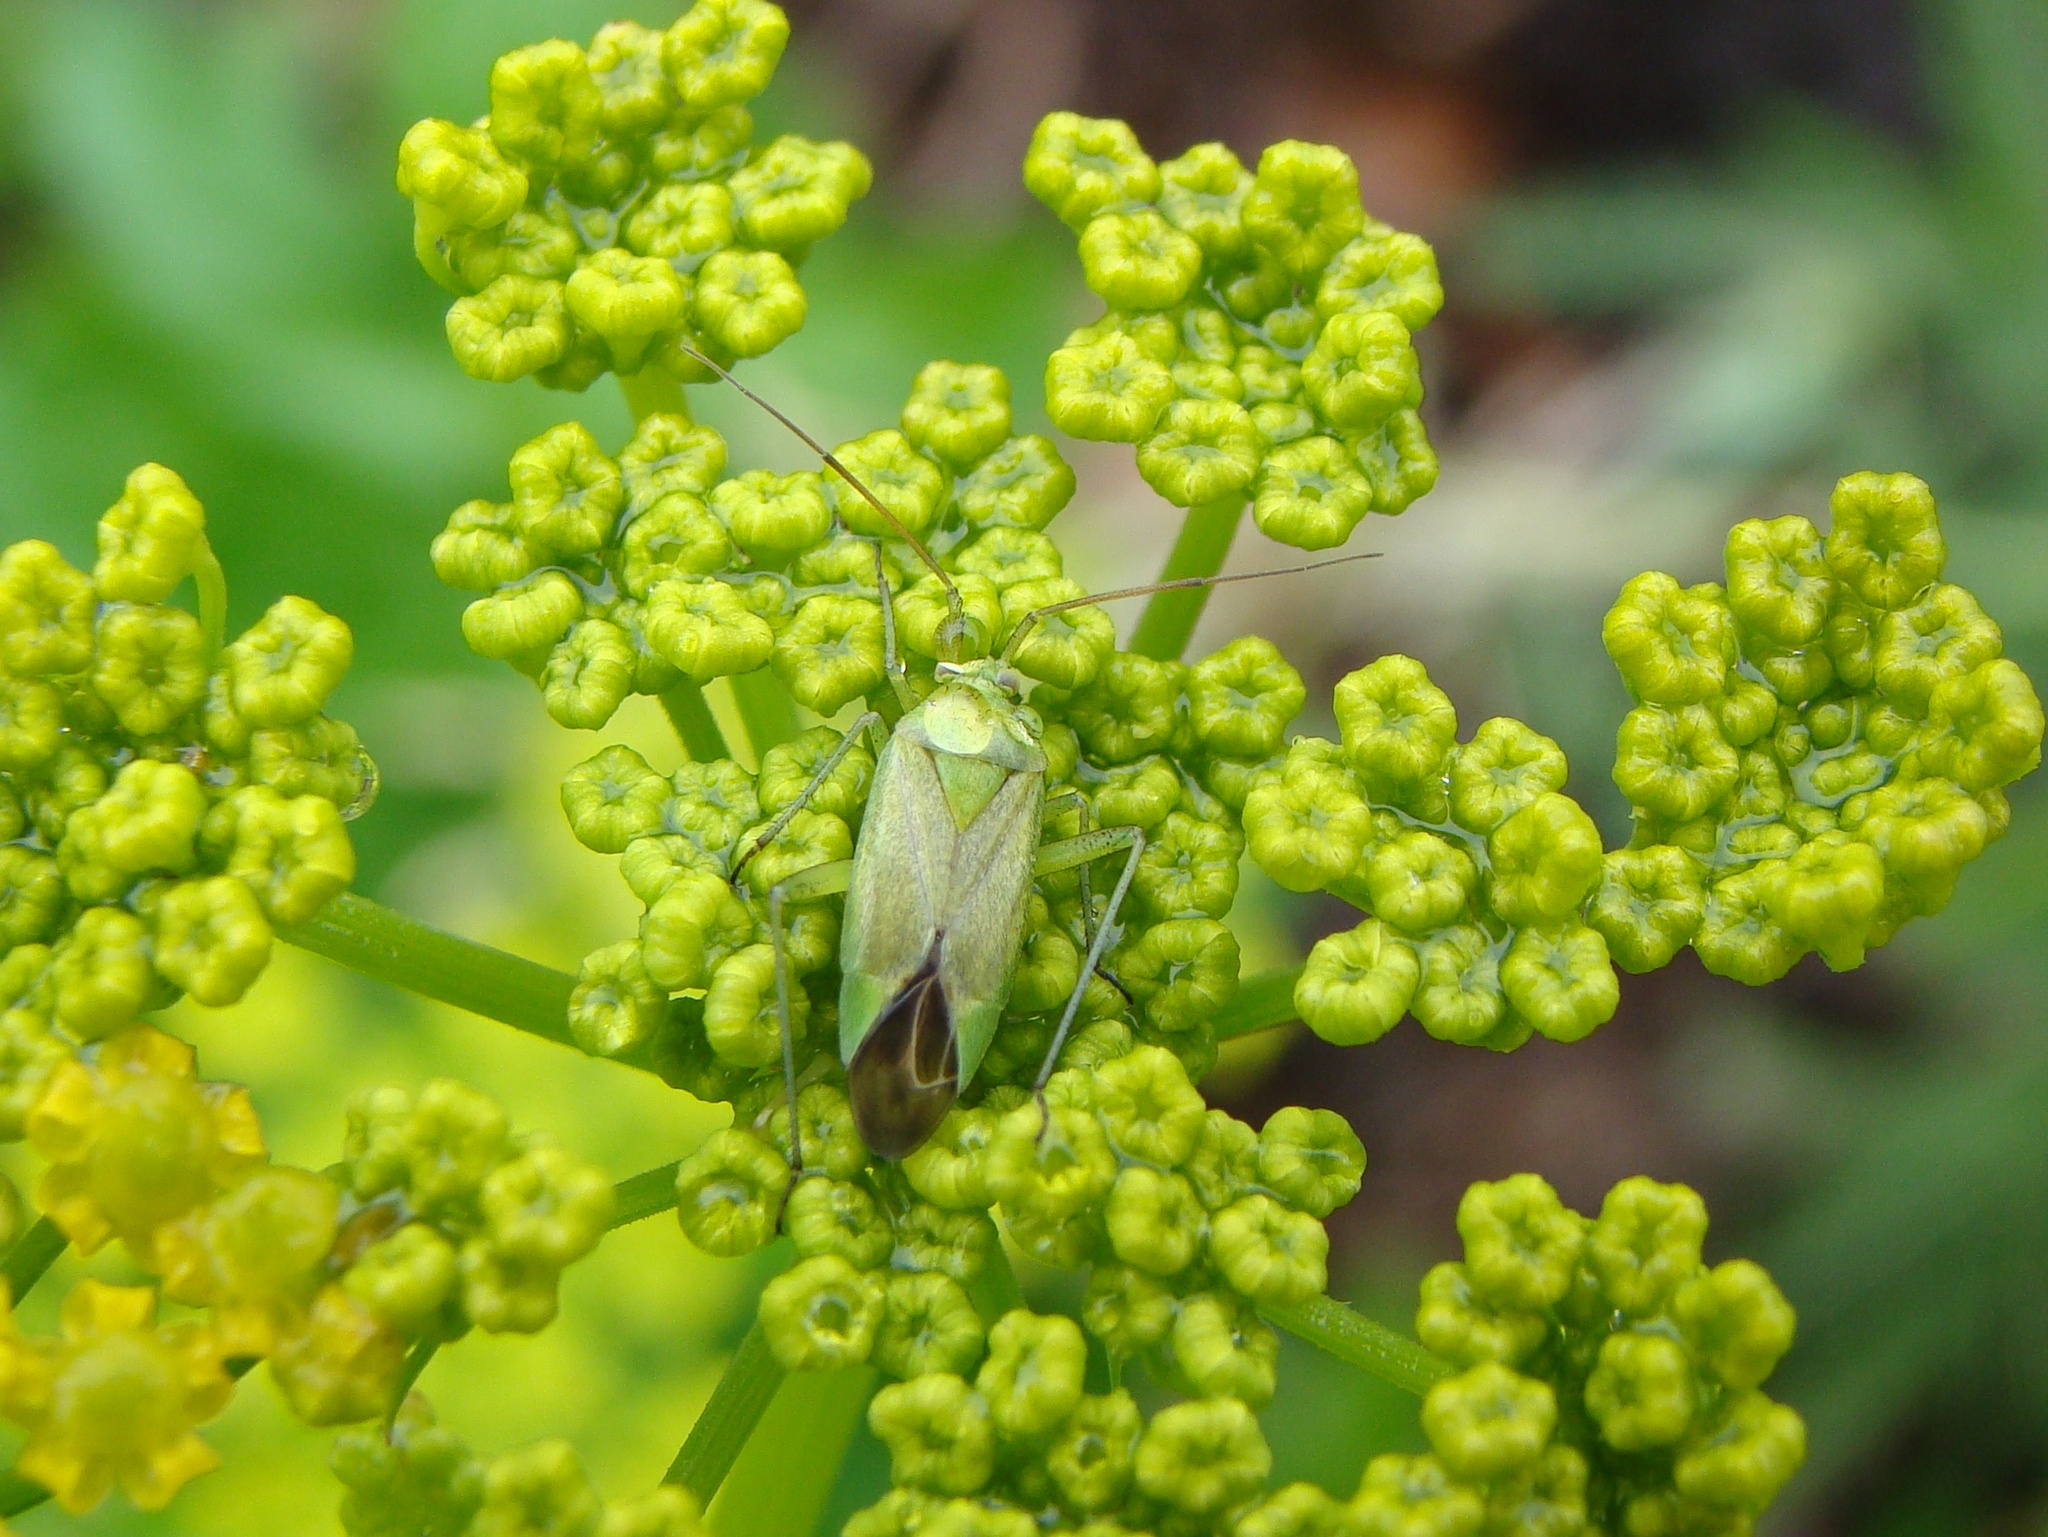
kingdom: Animalia
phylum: Arthropoda
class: Insecta
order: Hemiptera
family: Miridae
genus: Closterotomus
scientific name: Closterotomus norvegicus
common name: Plant bug
